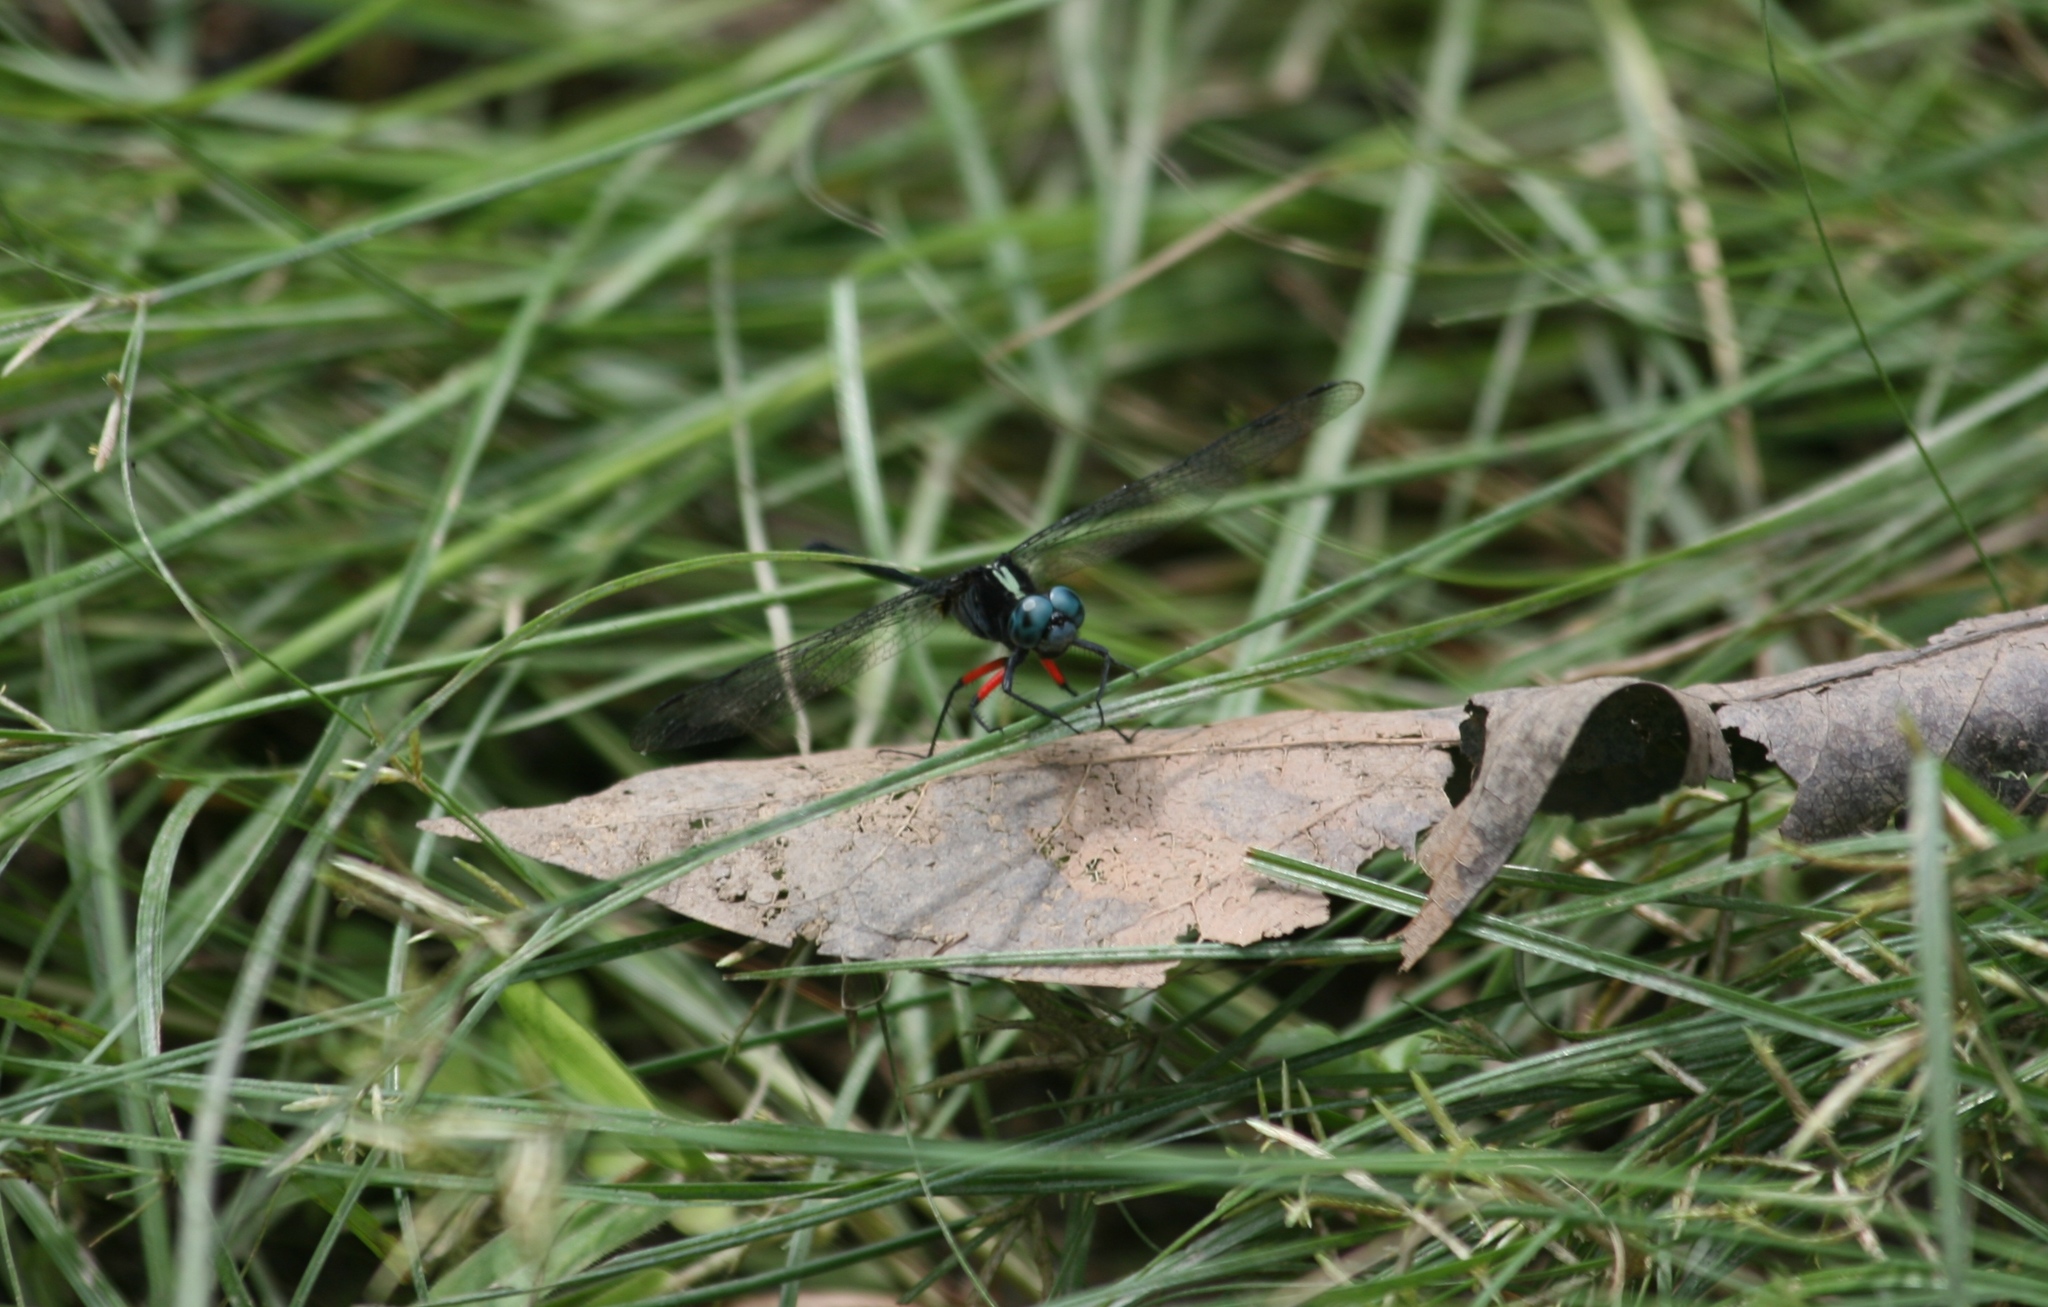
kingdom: Animalia
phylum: Arthropoda
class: Insecta
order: Odonata
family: Libellulidae
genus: Oxythemis
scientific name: Oxythemis phoenicosceles
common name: Pepperpants
